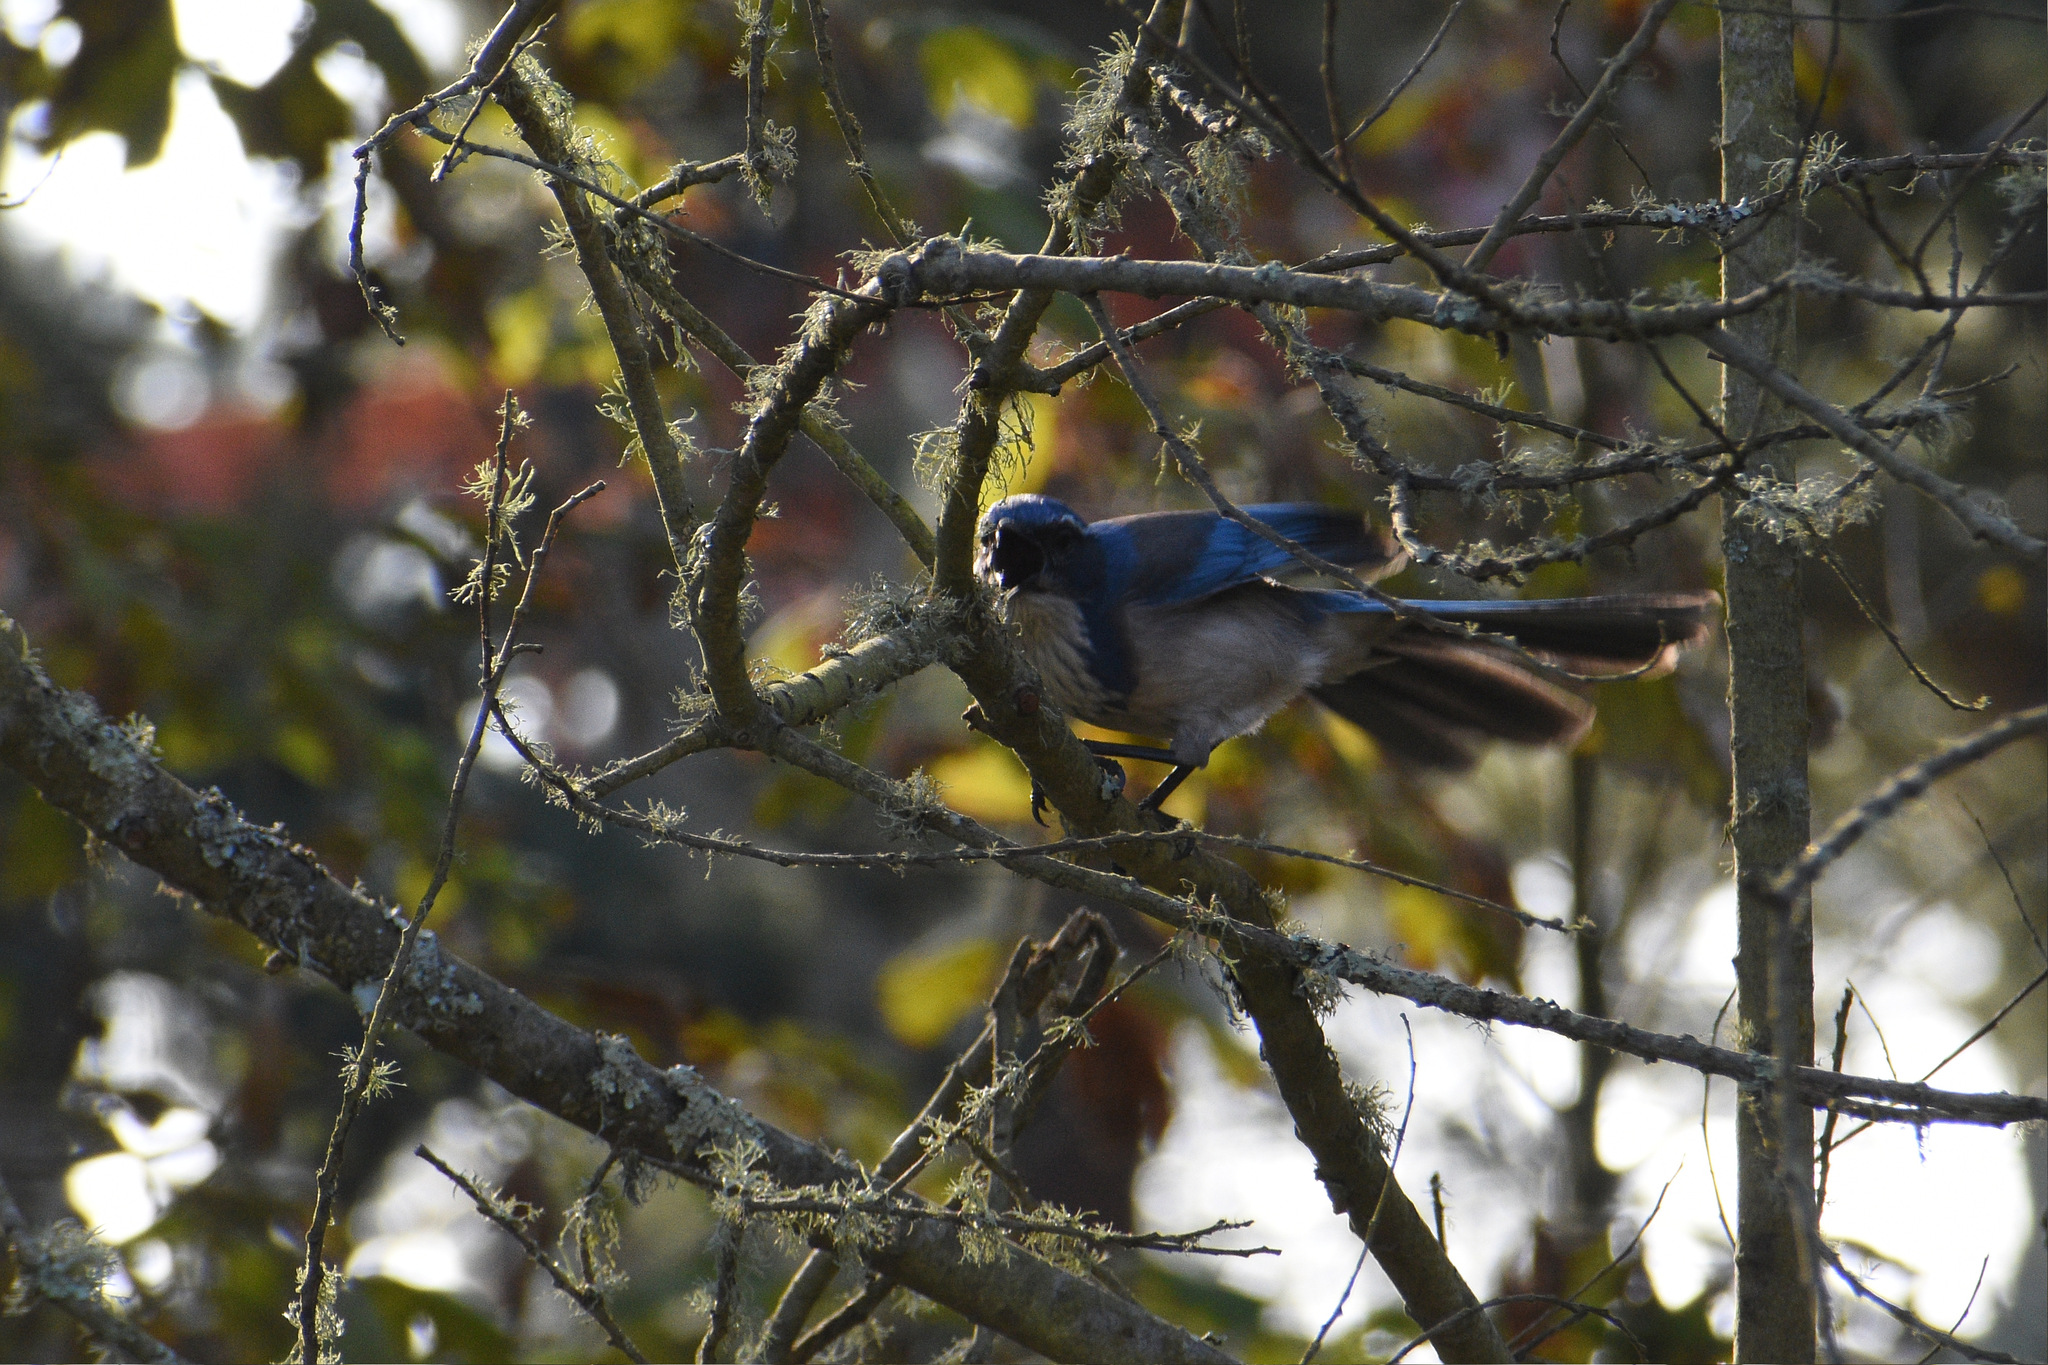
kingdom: Animalia
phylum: Chordata
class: Aves
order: Passeriformes
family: Corvidae
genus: Aphelocoma
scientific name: Aphelocoma californica
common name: California scrub-jay
